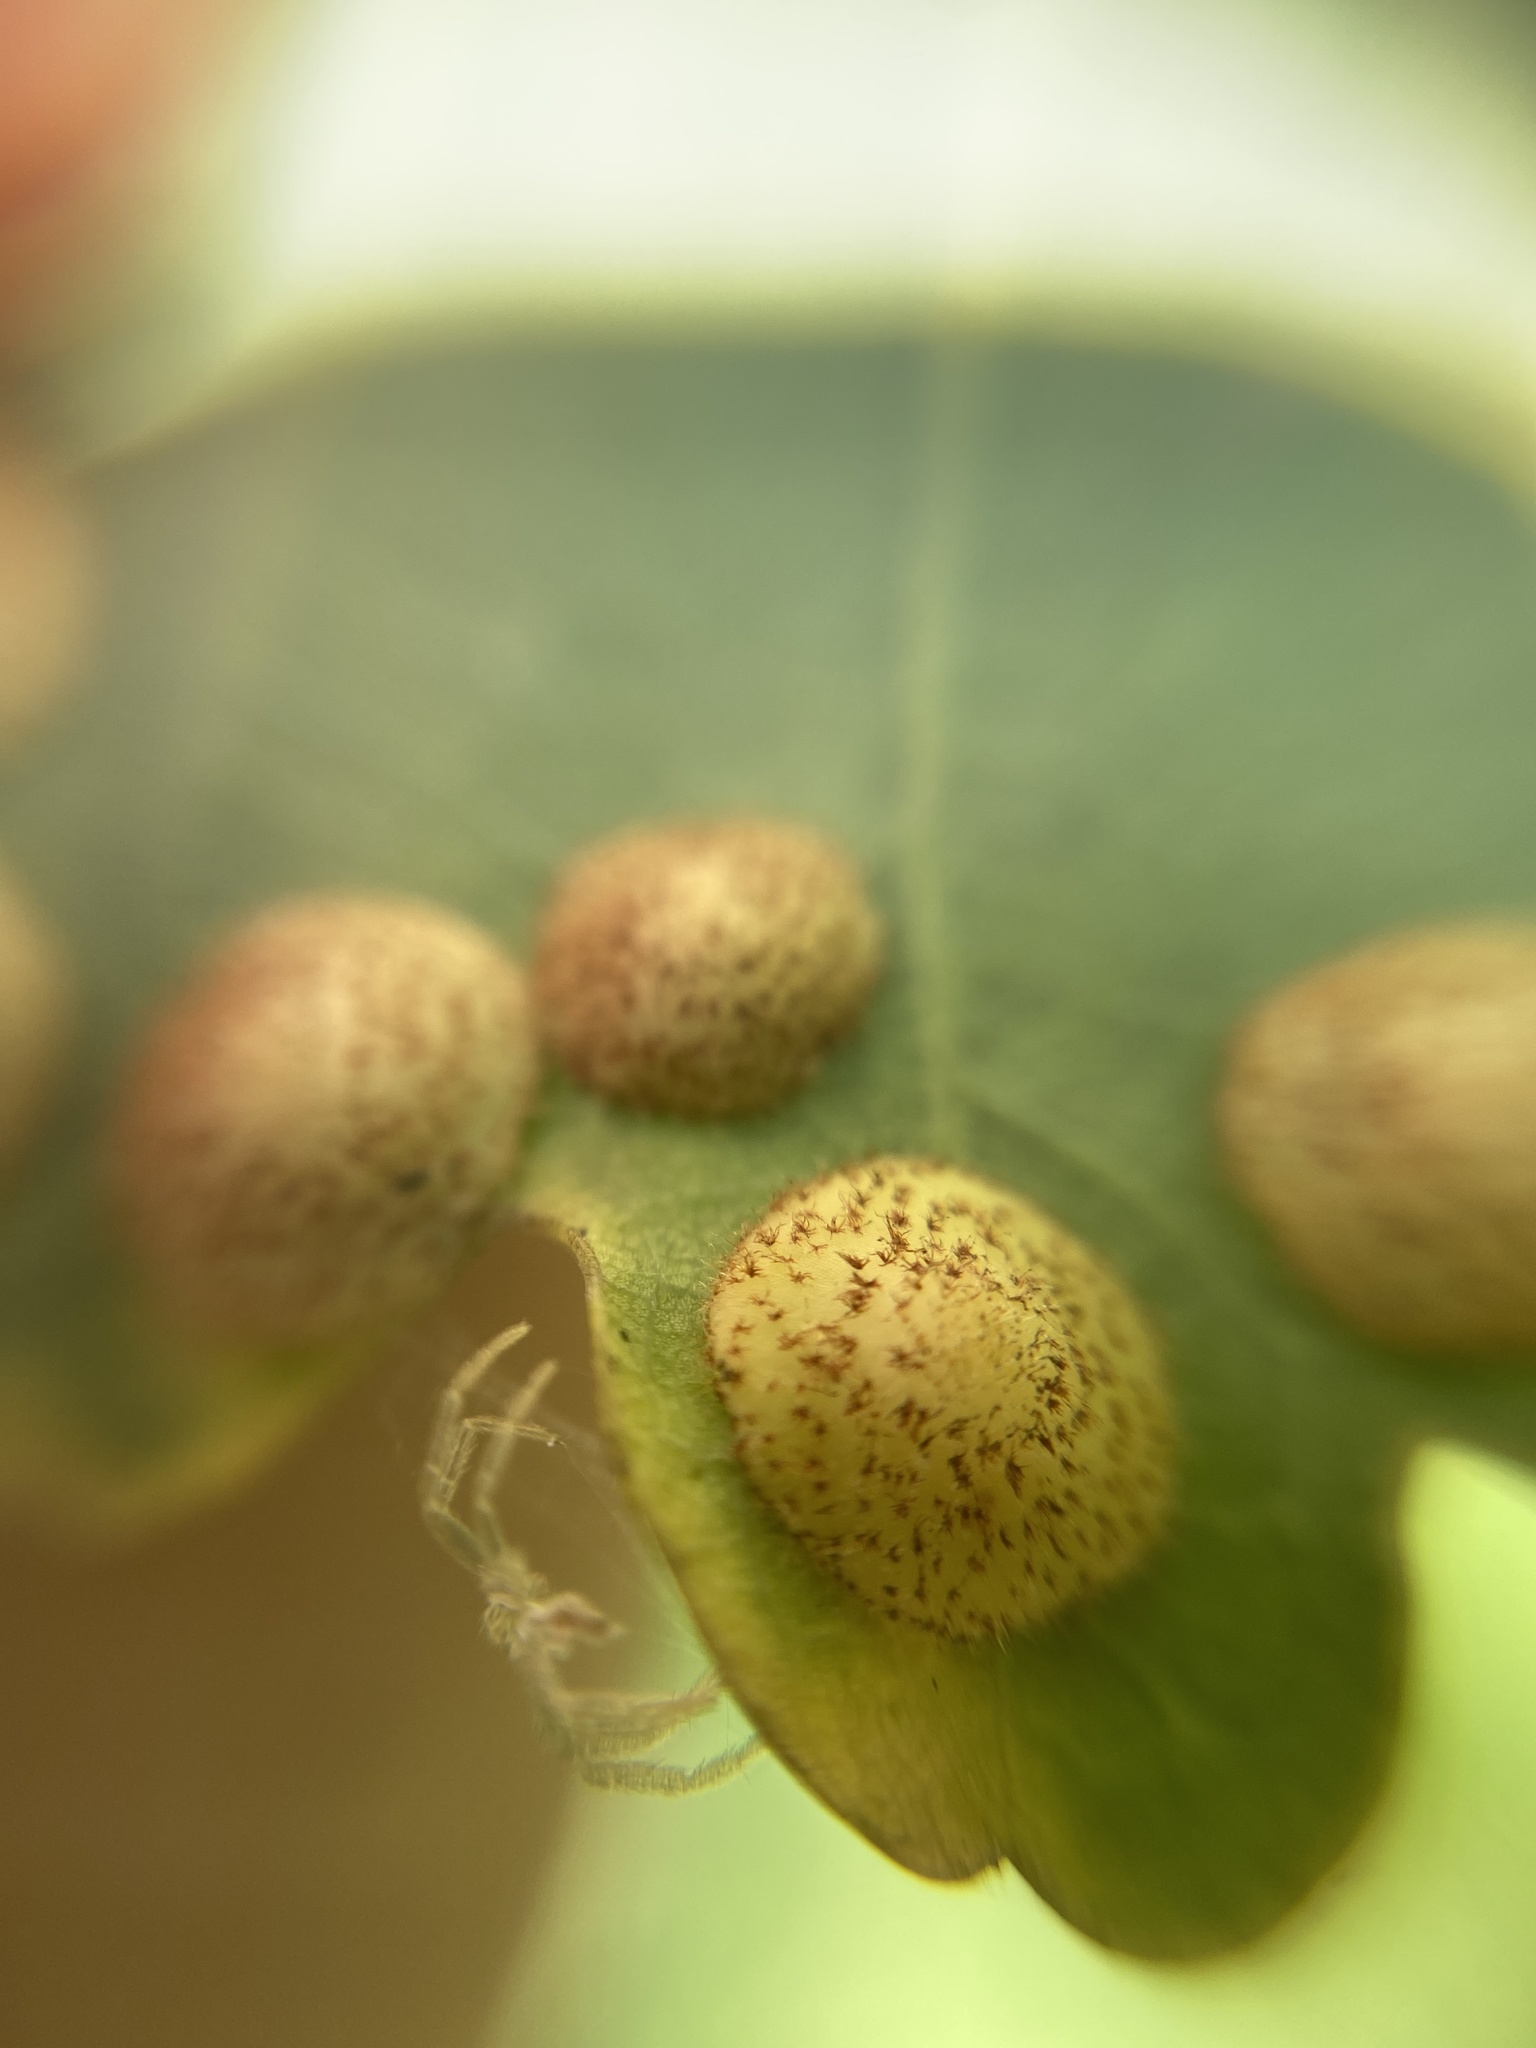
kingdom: Animalia
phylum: Arthropoda
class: Insecta
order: Hymenoptera
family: Cynipidae
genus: Neuroterus
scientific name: Neuroterus quercusbaccarum
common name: Common spangle gall
